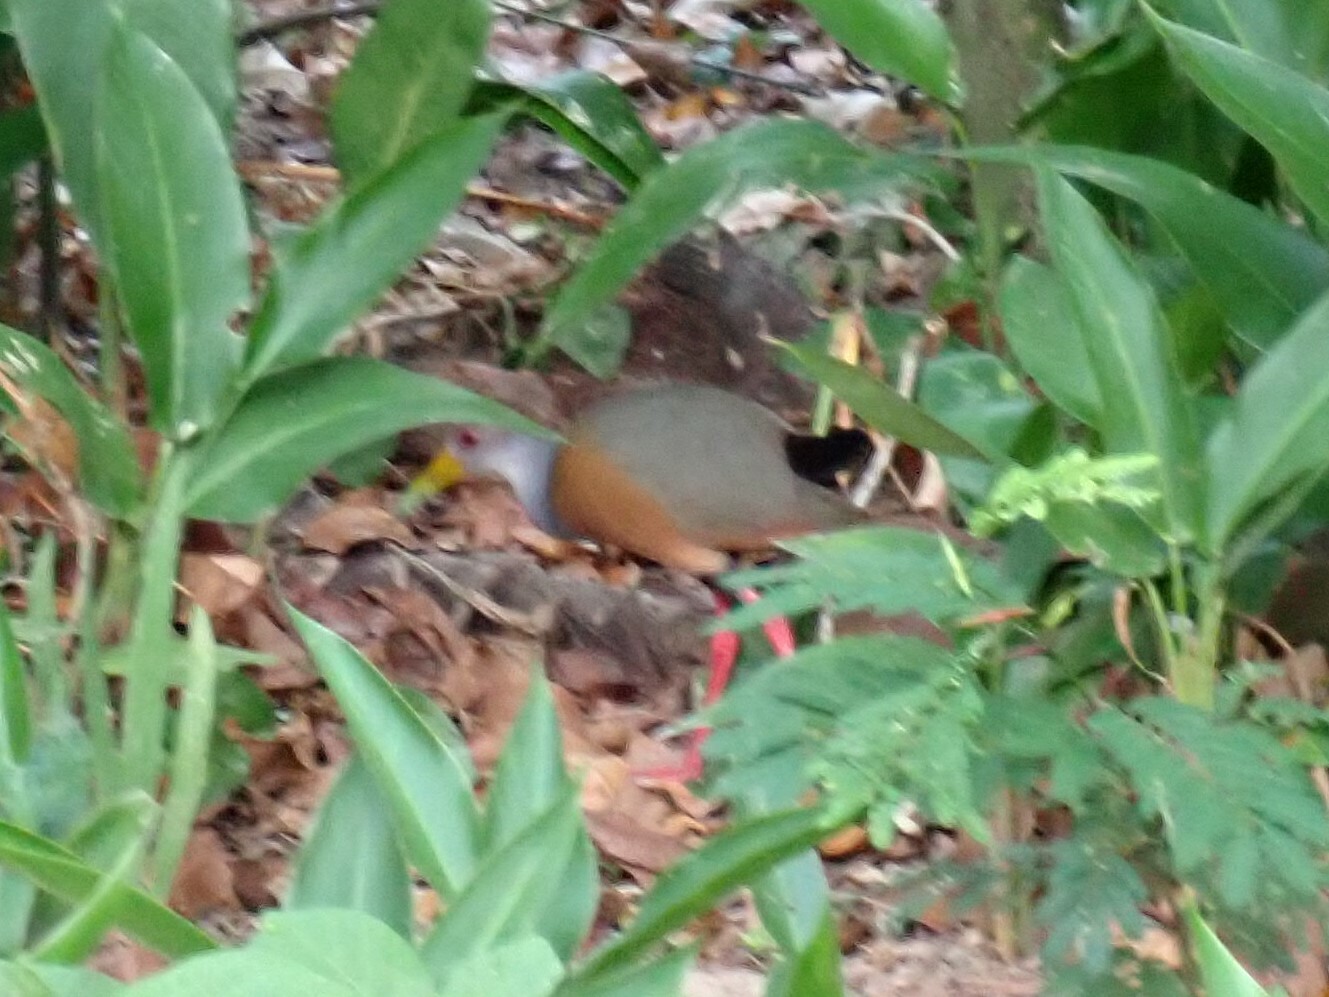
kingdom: Animalia
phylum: Chordata
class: Aves
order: Gruiformes
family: Rallidae
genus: Aramides
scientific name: Aramides albiventris
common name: Russet-naped wood-rail
